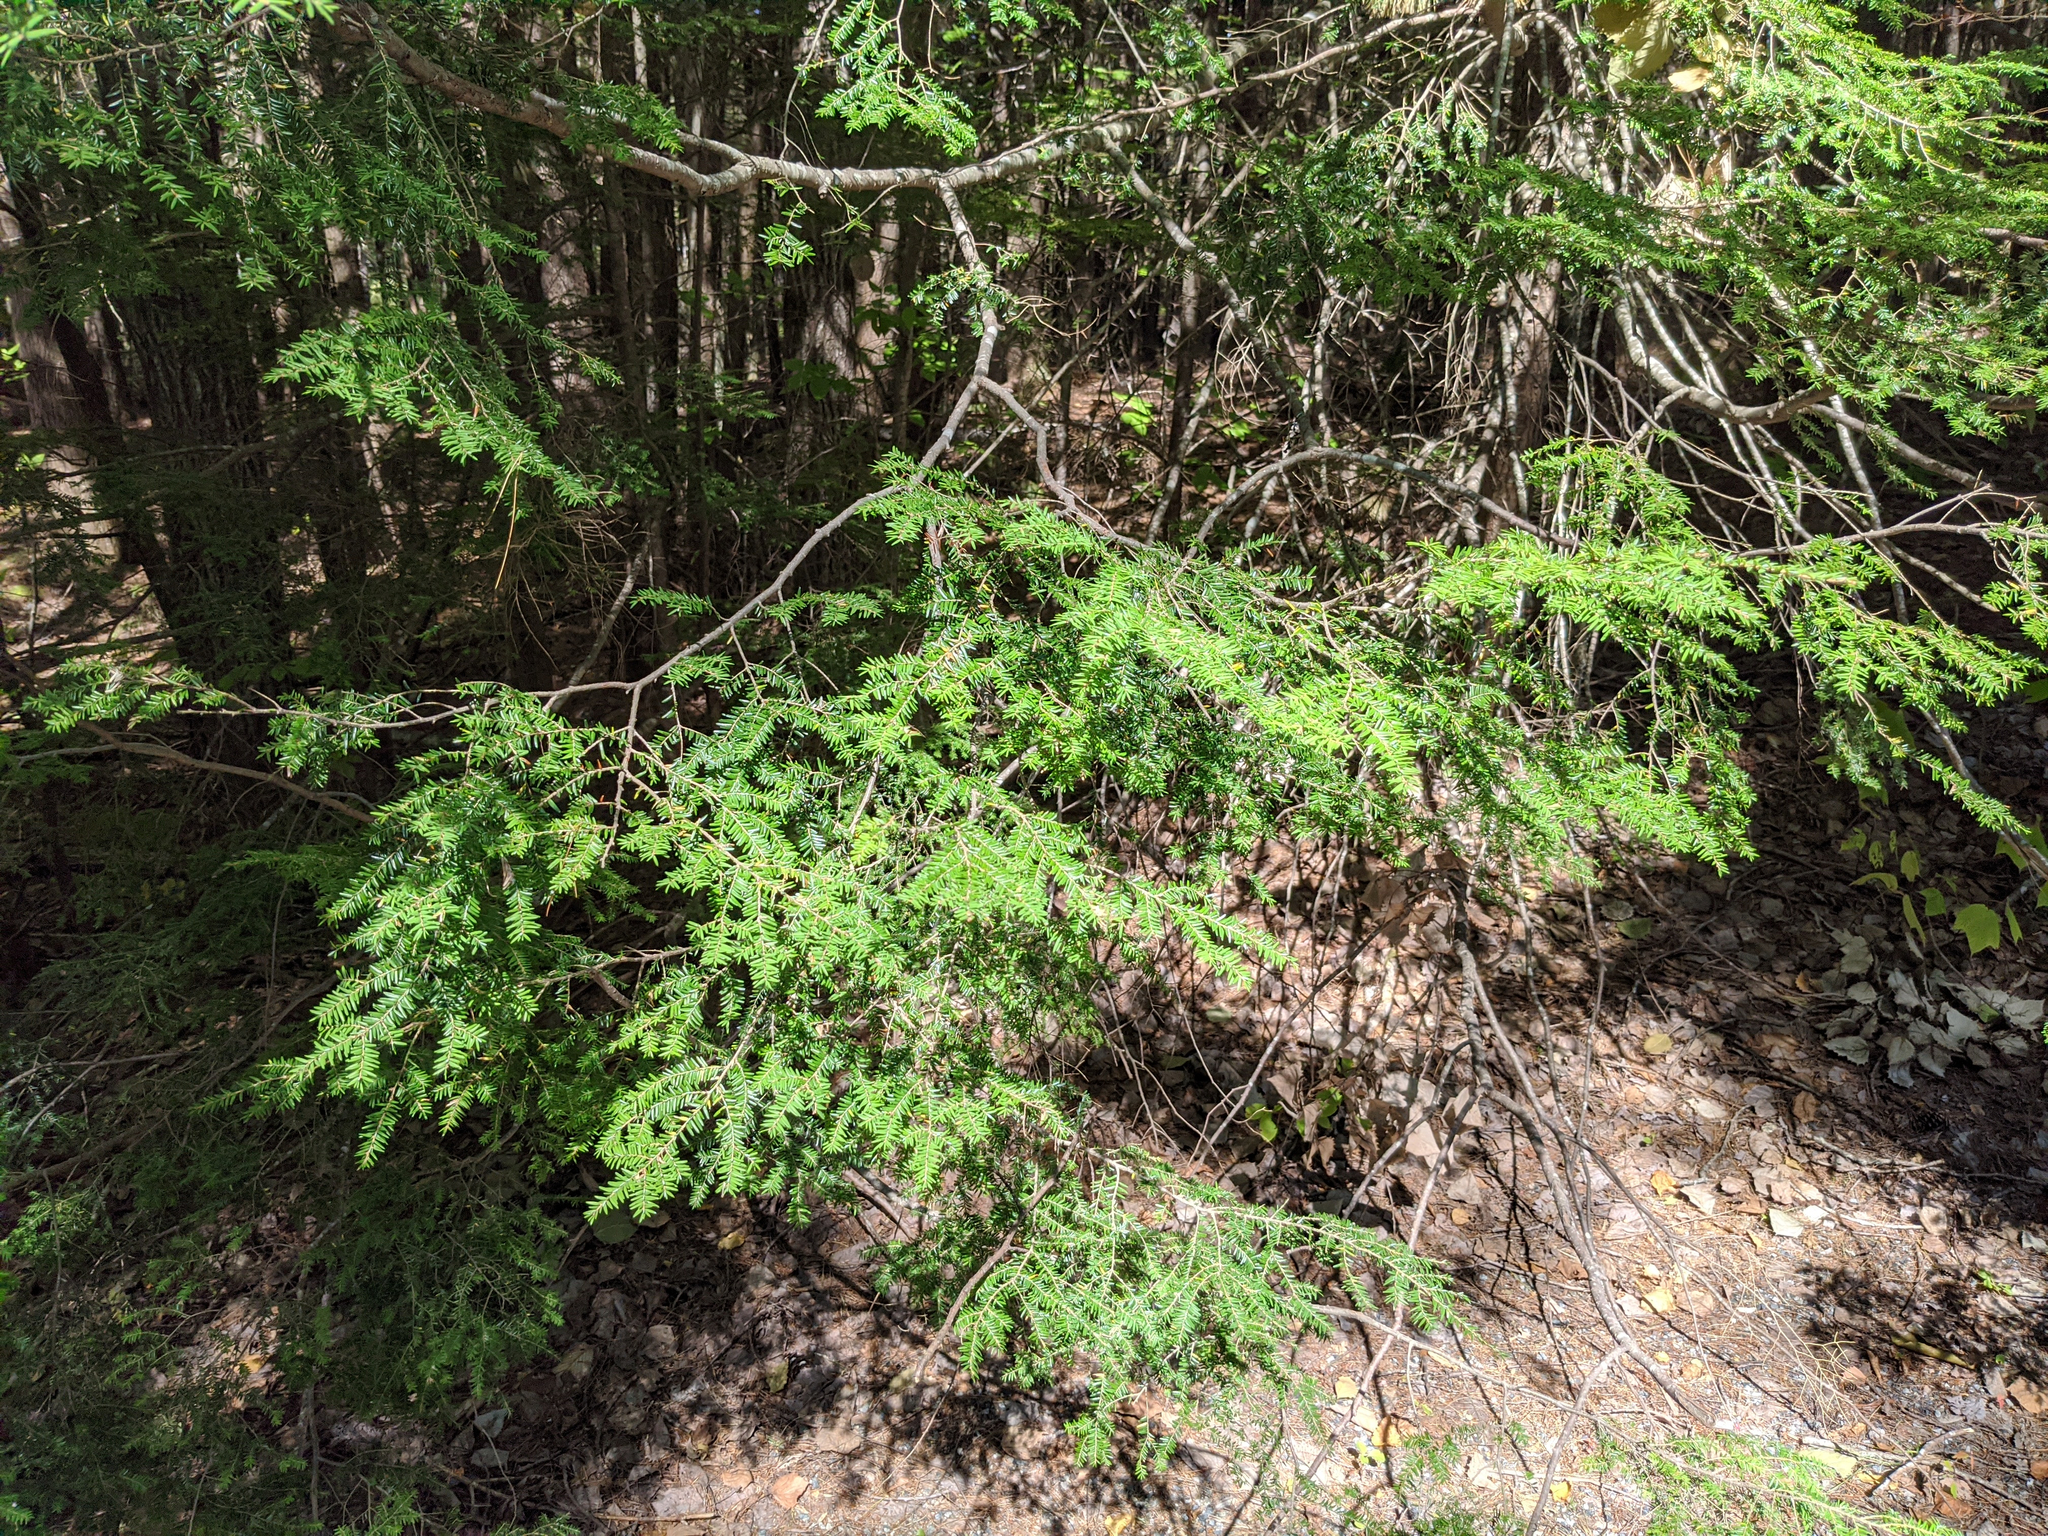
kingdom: Plantae
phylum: Tracheophyta
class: Pinopsida
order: Pinales
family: Pinaceae
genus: Tsuga
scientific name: Tsuga canadensis
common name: Eastern hemlock
